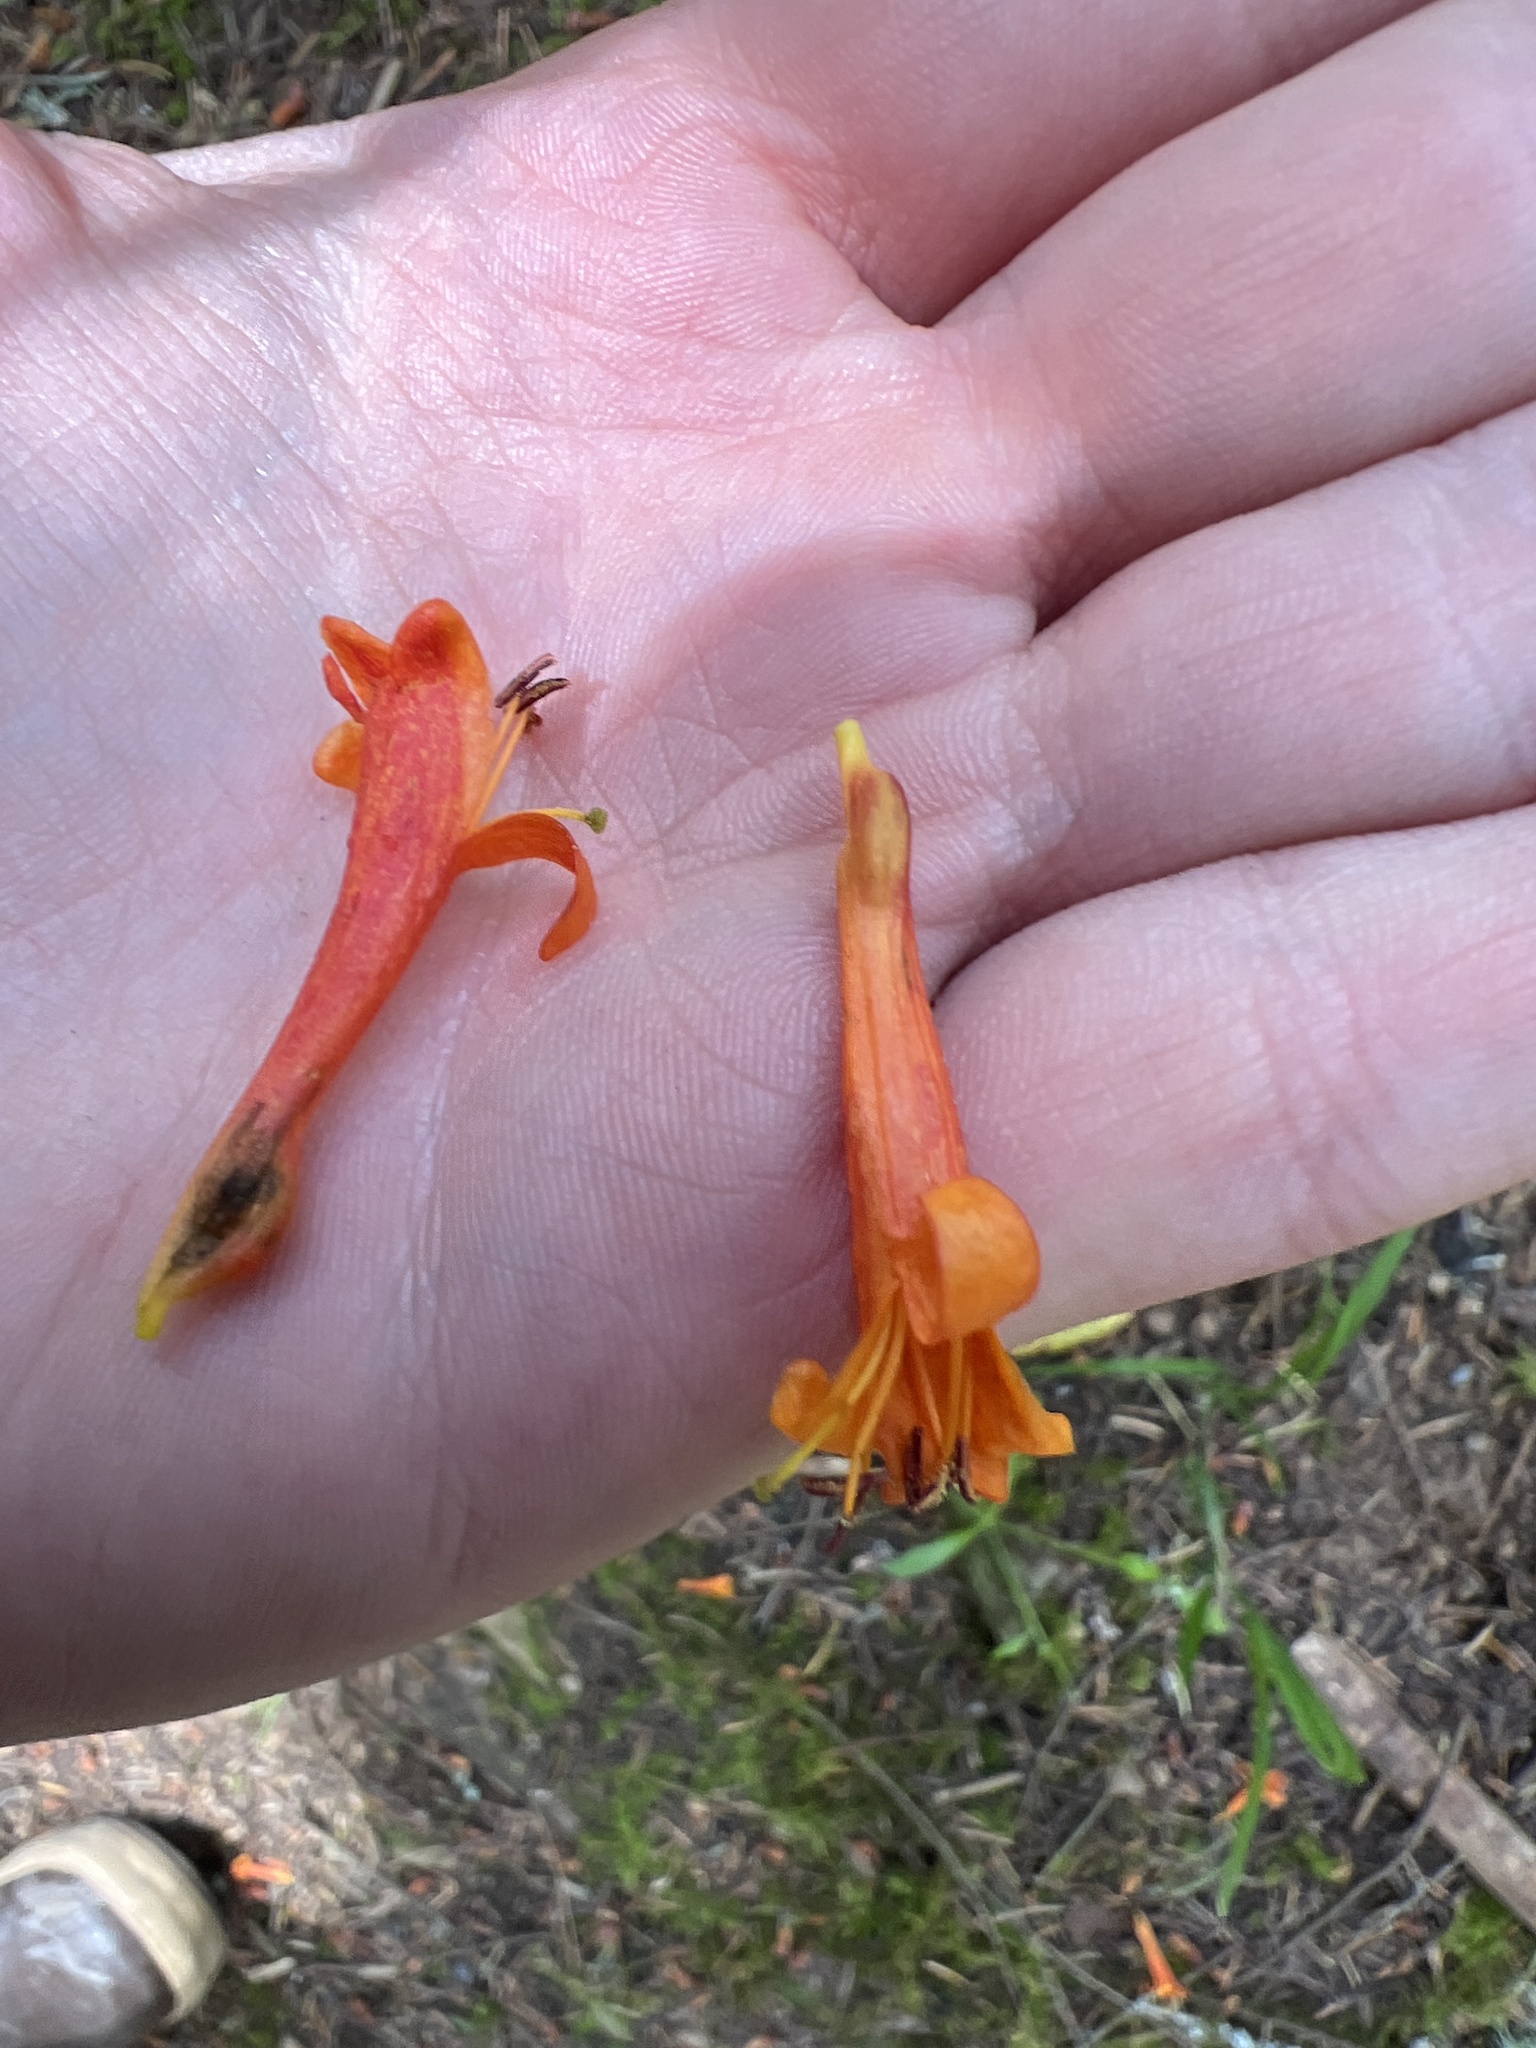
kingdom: Plantae
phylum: Tracheophyta
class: Magnoliopsida
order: Dipsacales
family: Caprifoliaceae
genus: Lonicera
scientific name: Lonicera ciliosa
